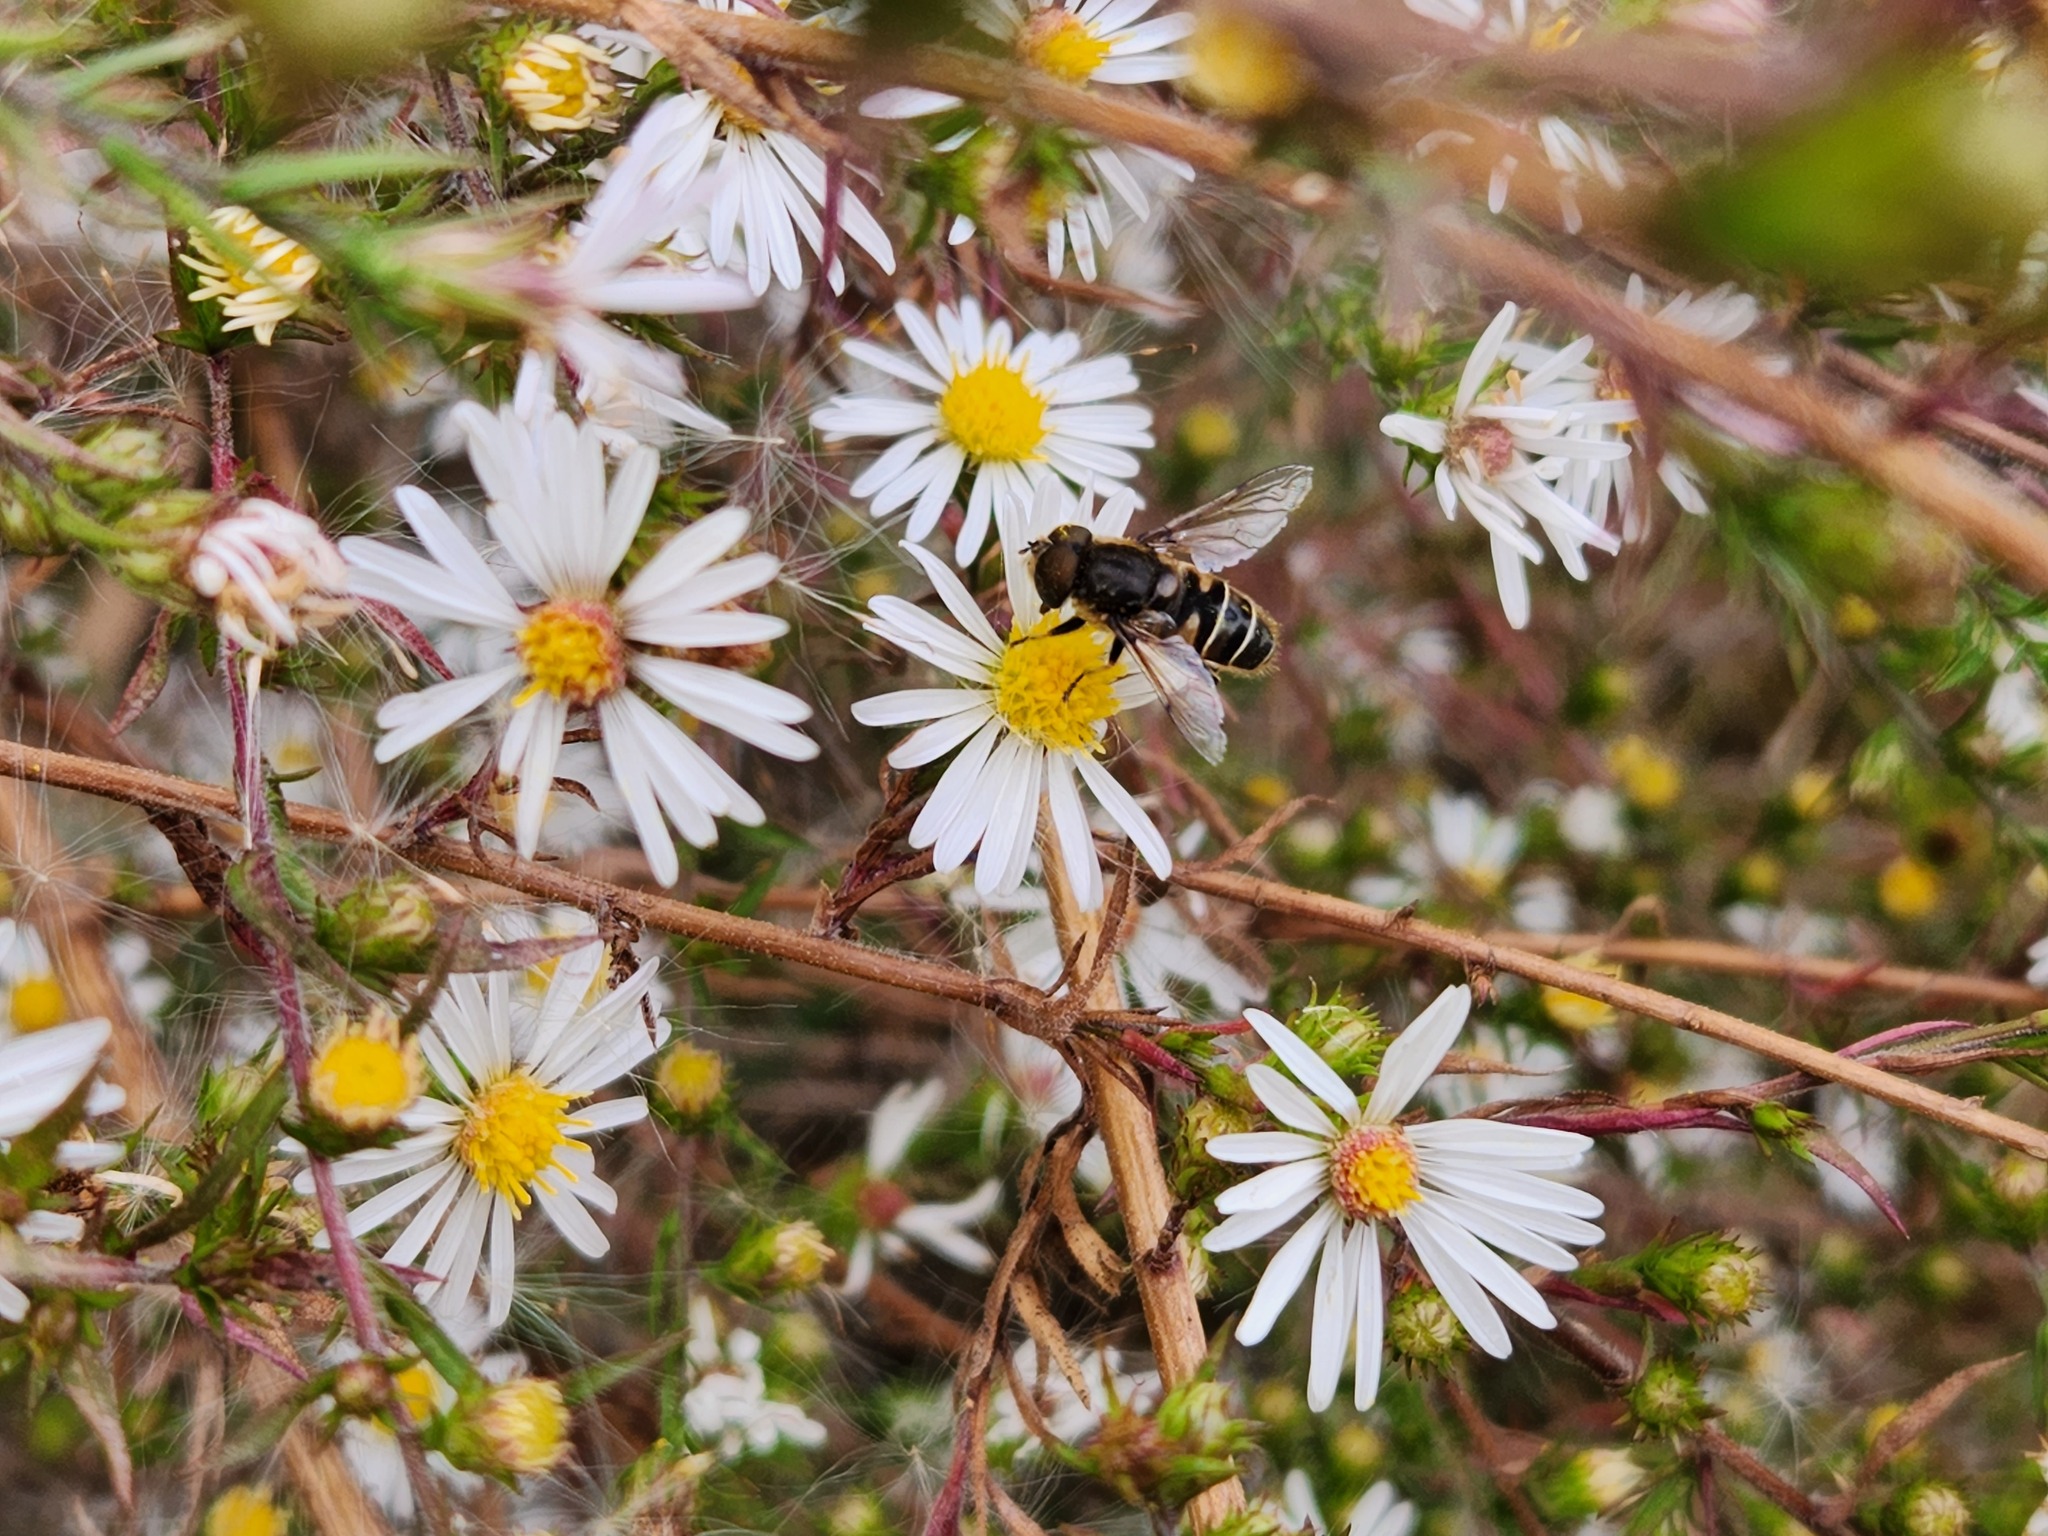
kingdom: Animalia
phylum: Arthropoda
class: Insecta
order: Diptera
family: Syrphidae
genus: Eristalis
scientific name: Eristalis dimidiata
